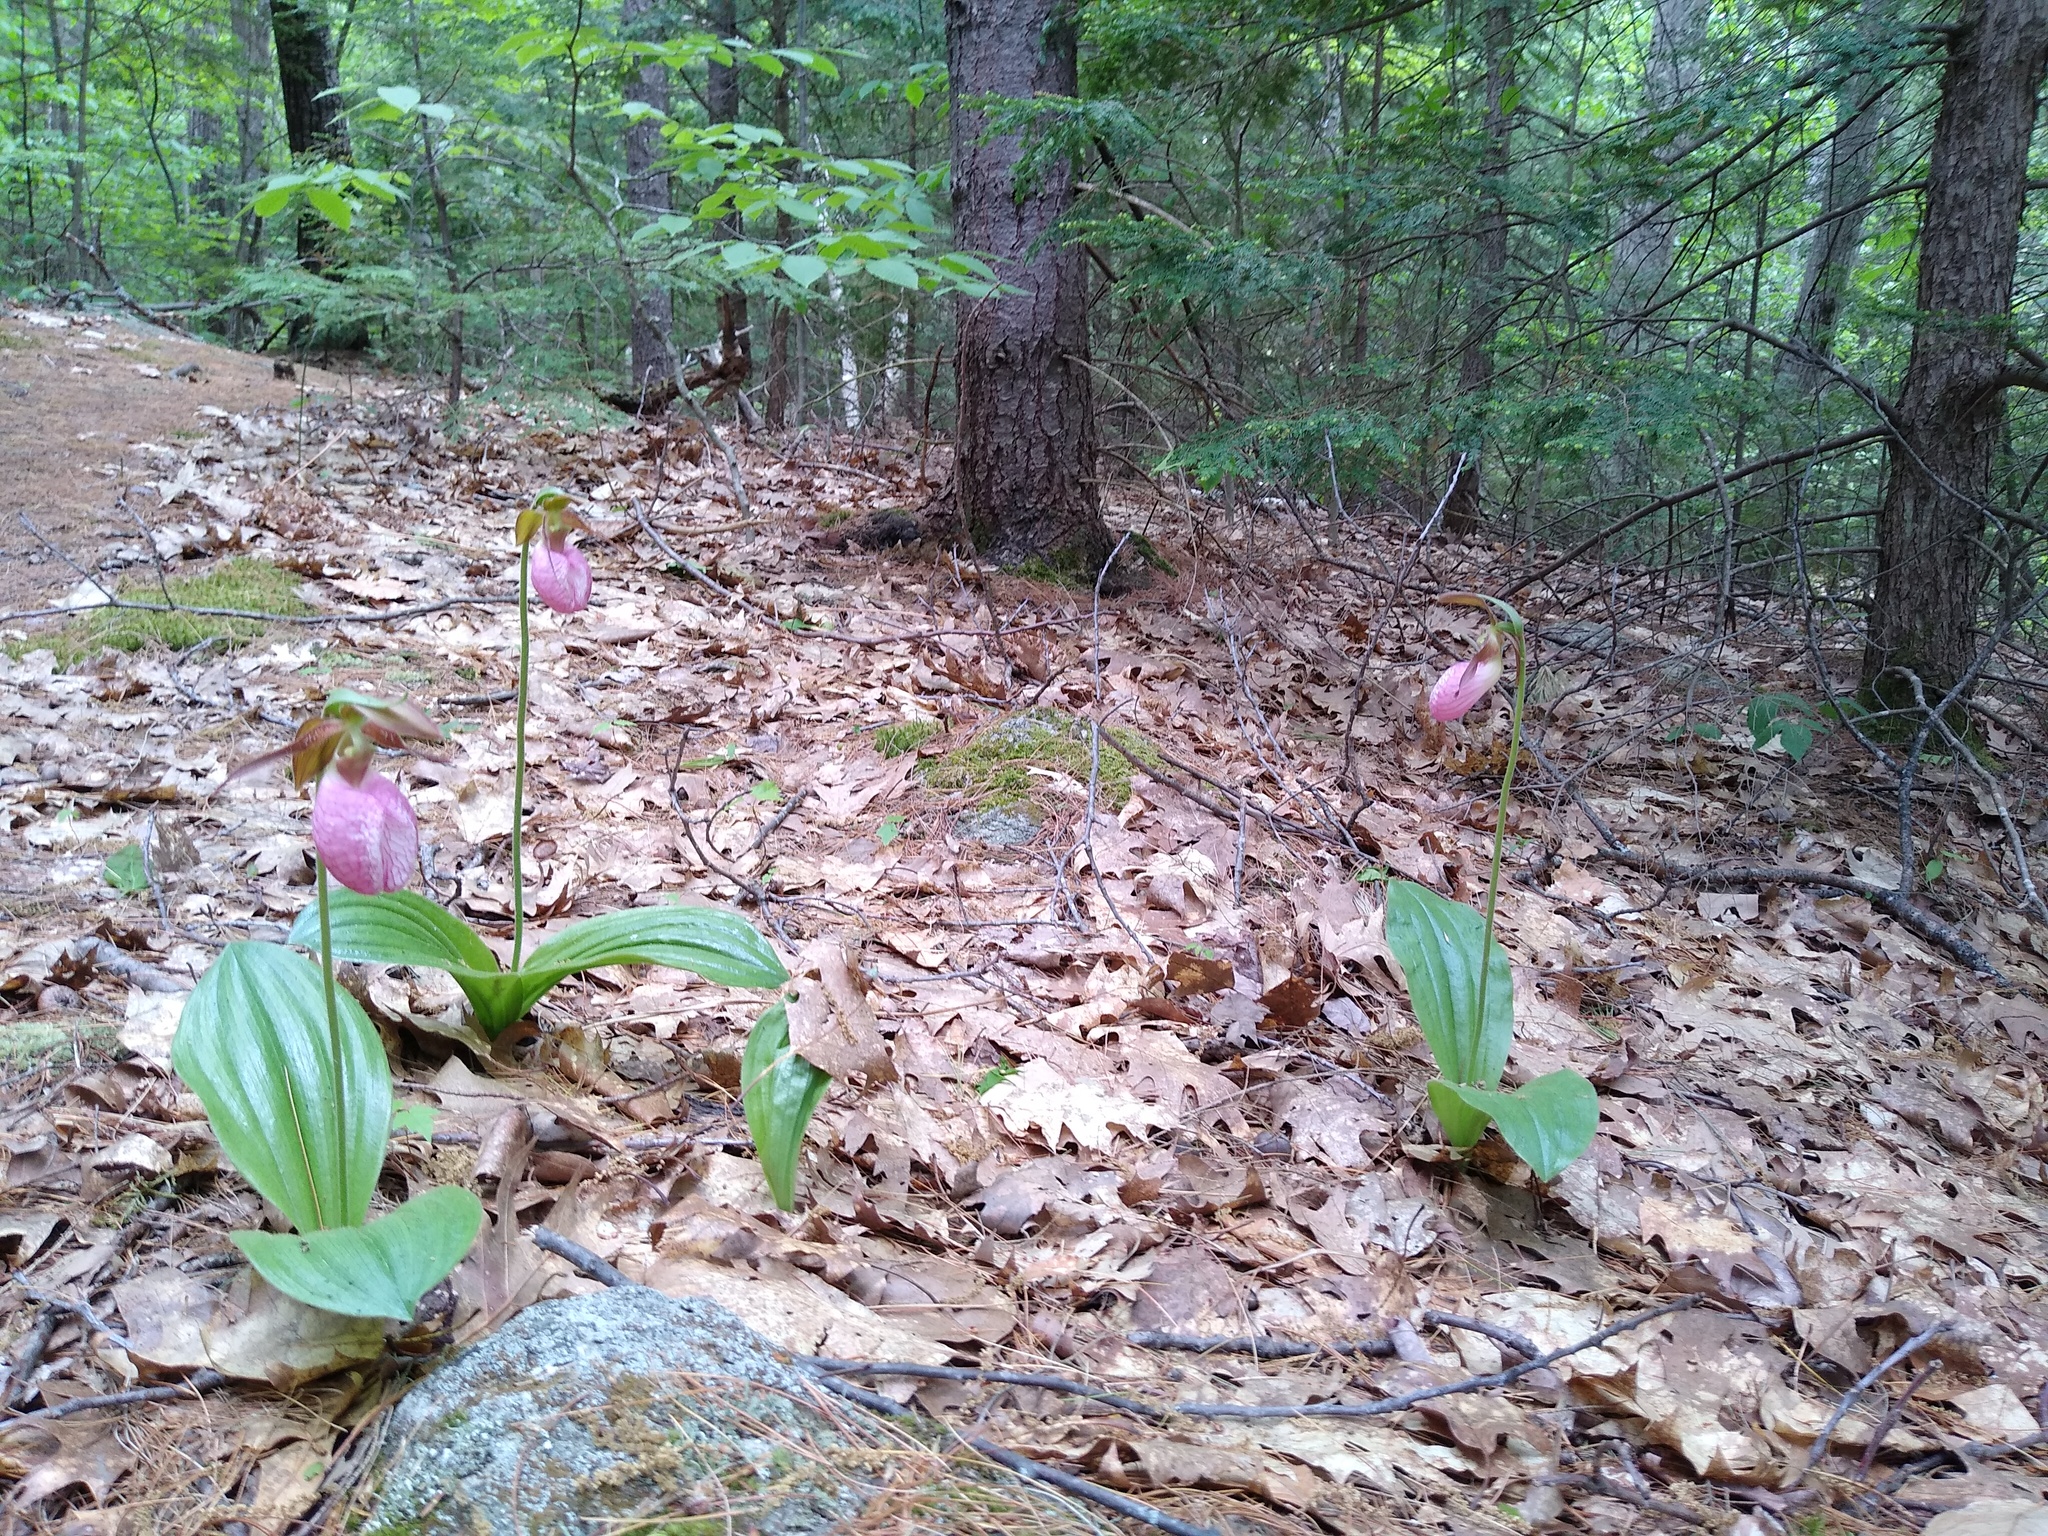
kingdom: Plantae
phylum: Tracheophyta
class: Liliopsida
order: Asparagales
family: Orchidaceae
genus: Cypripedium
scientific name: Cypripedium acaule
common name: Pink lady's-slipper
